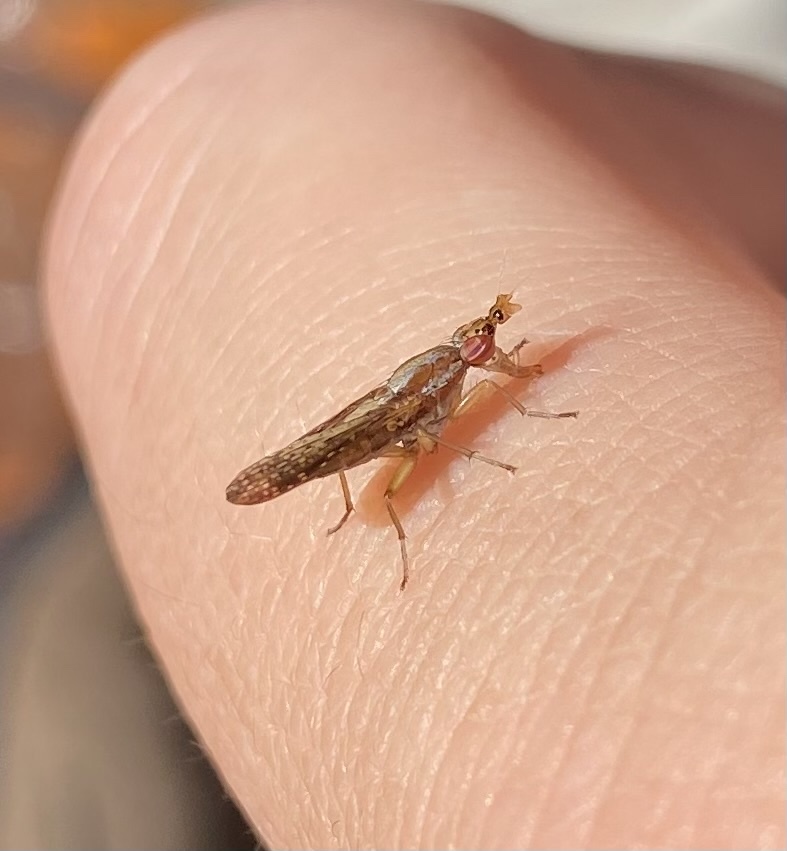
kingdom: Animalia
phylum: Arthropoda
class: Insecta
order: Diptera
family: Sciomyzidae
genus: Limnia
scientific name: Limnia shannoni
